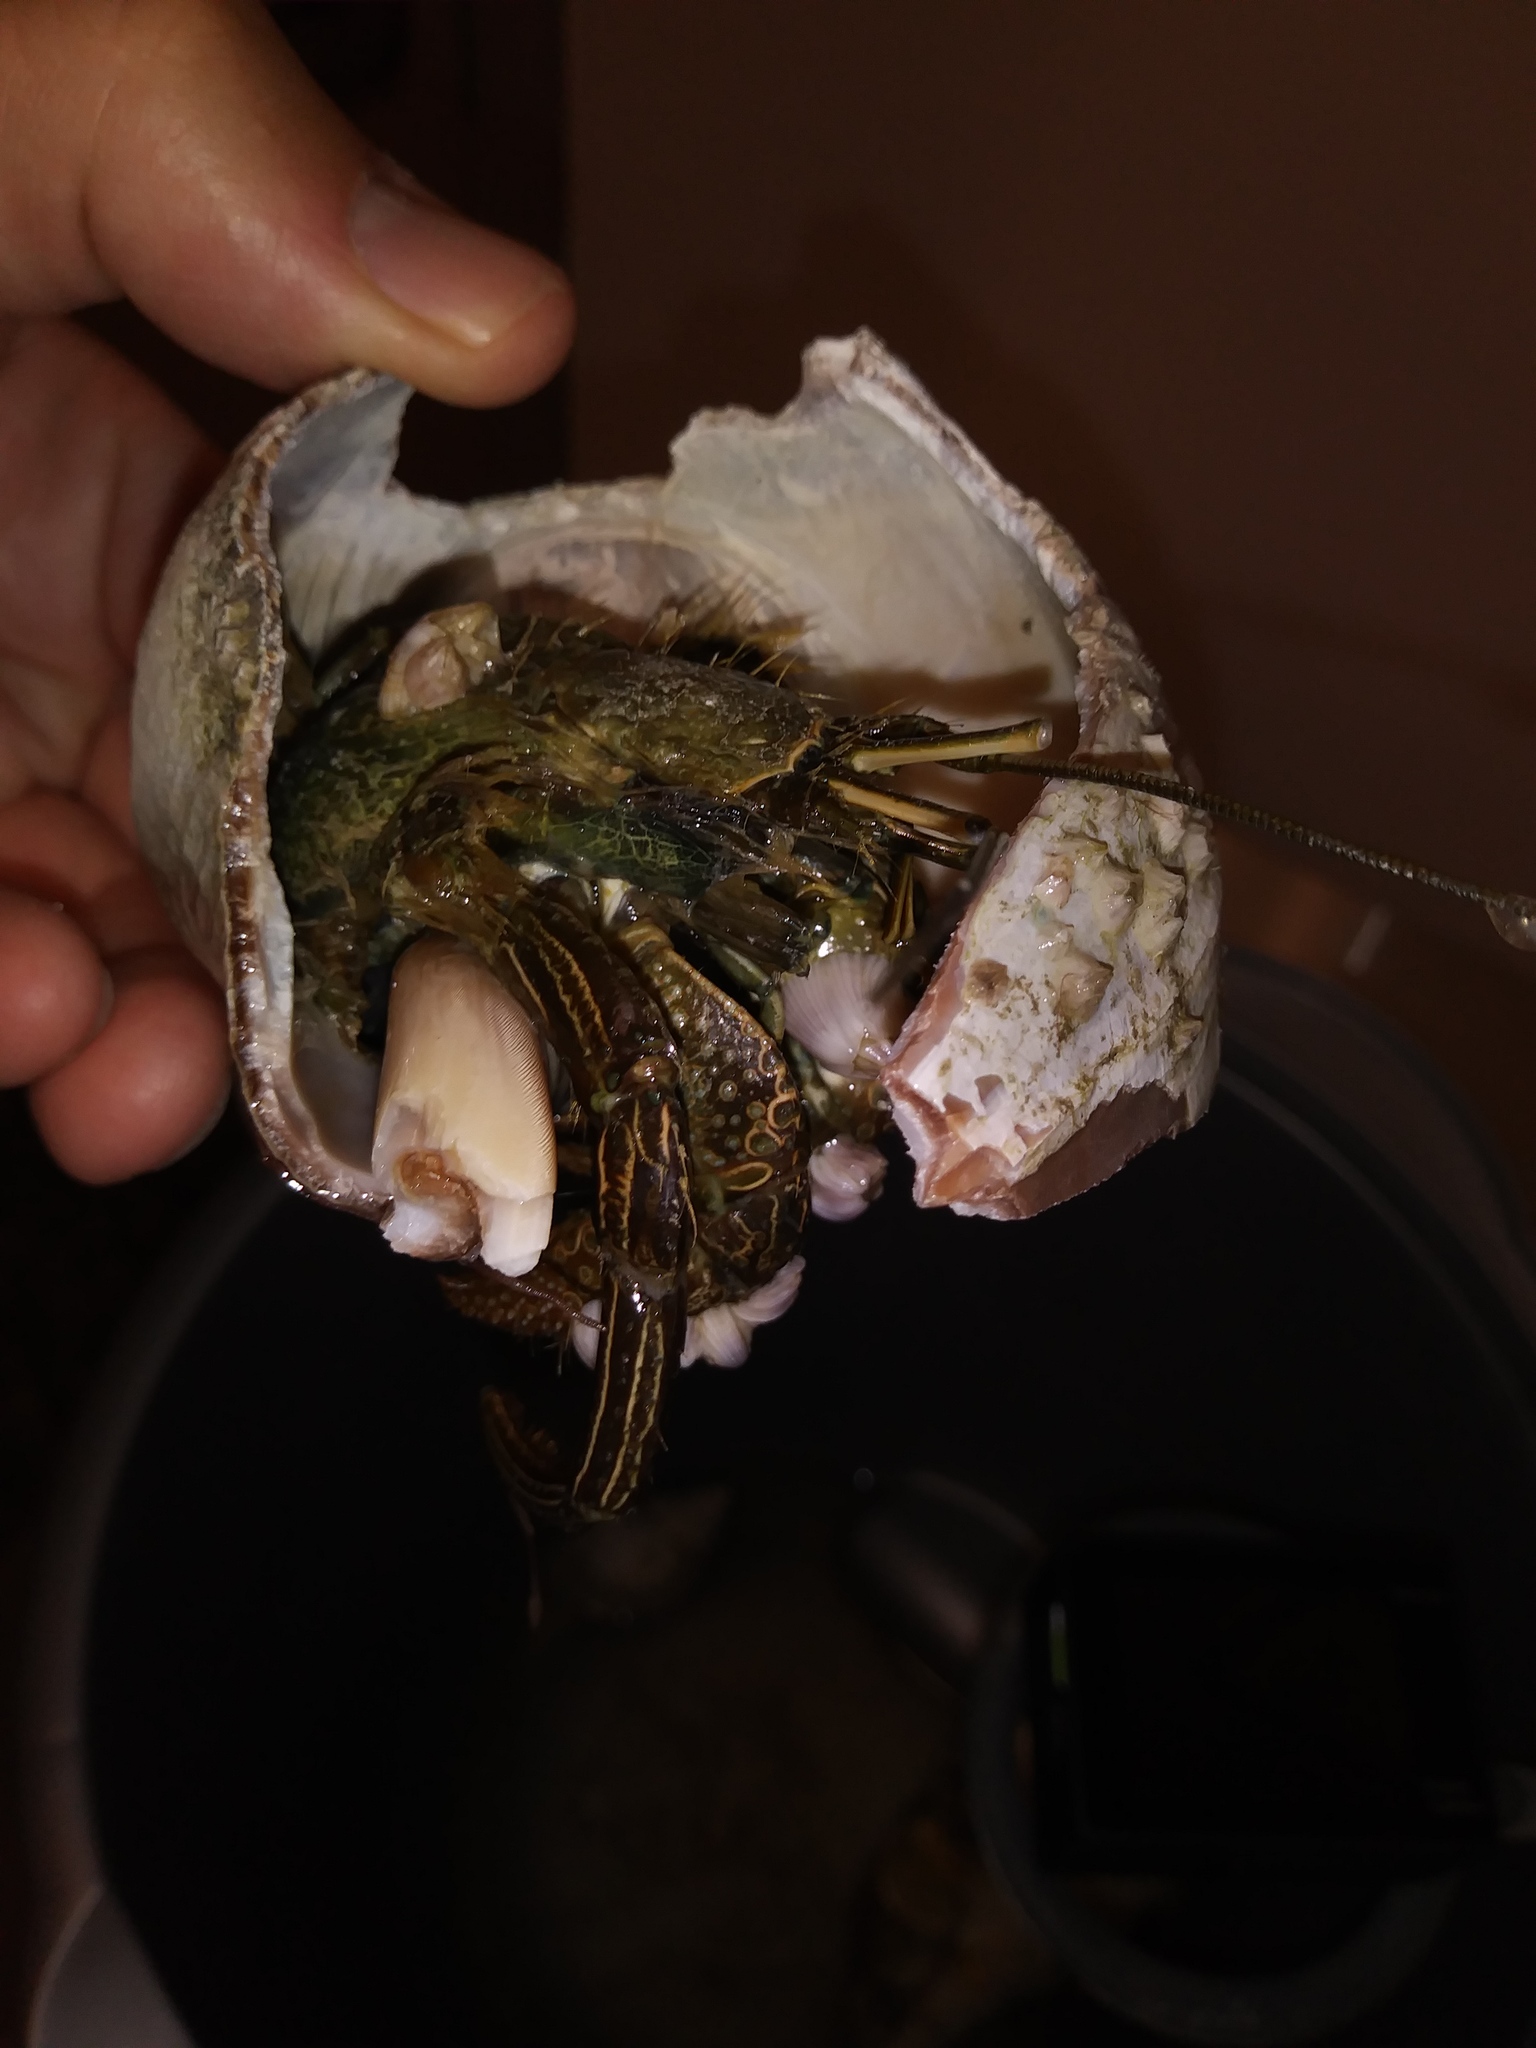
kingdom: Animalia
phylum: Arthropoda
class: Malacostraca
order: Decapoda
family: Diogenidae
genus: Clibanarius
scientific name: Clibanarius vittatus
